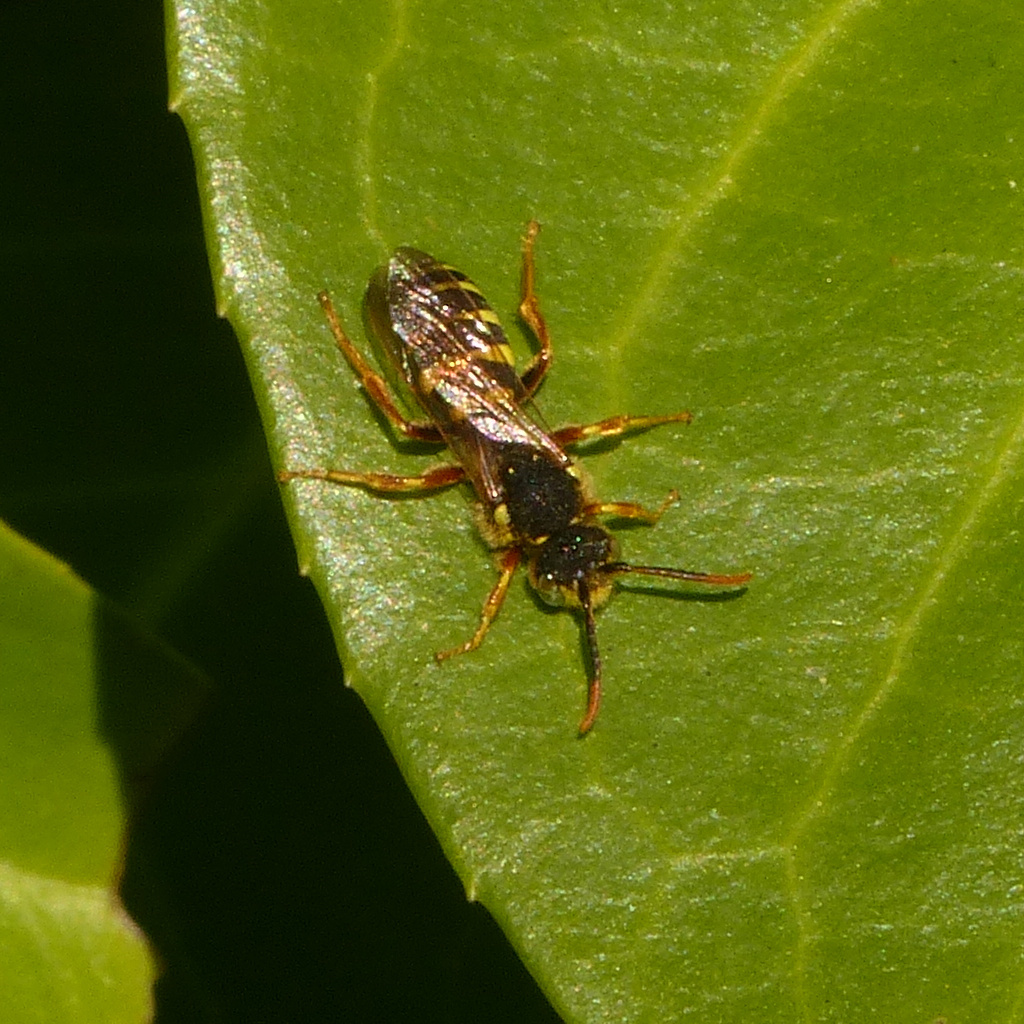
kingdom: Animalia
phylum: Arthropoda
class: Insecta
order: Hymenoptera
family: Apidae
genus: Nomada
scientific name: Nomada goodeniana
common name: Gooden's nomad bee
